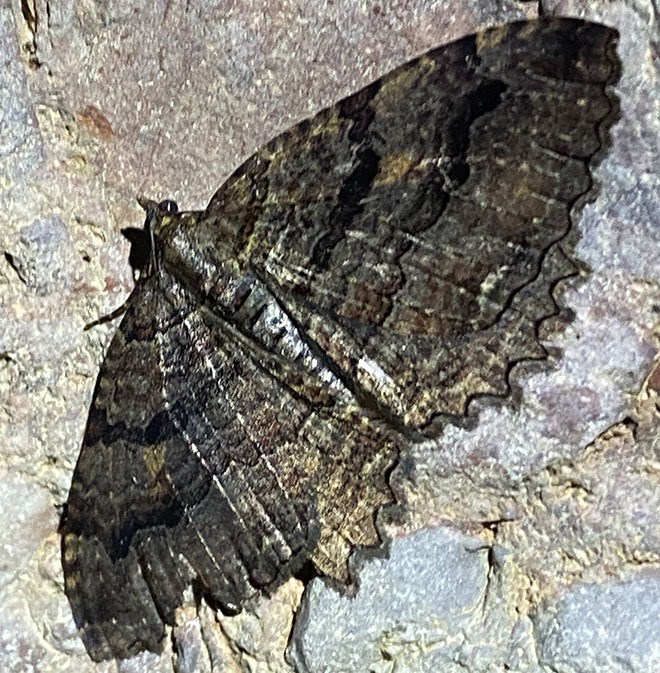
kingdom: Animalia
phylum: Arthropoda
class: Insecta
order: Lepidoptera
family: Geometridae
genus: Triphosa
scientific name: Triphosa haesitata
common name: Tissue moth
